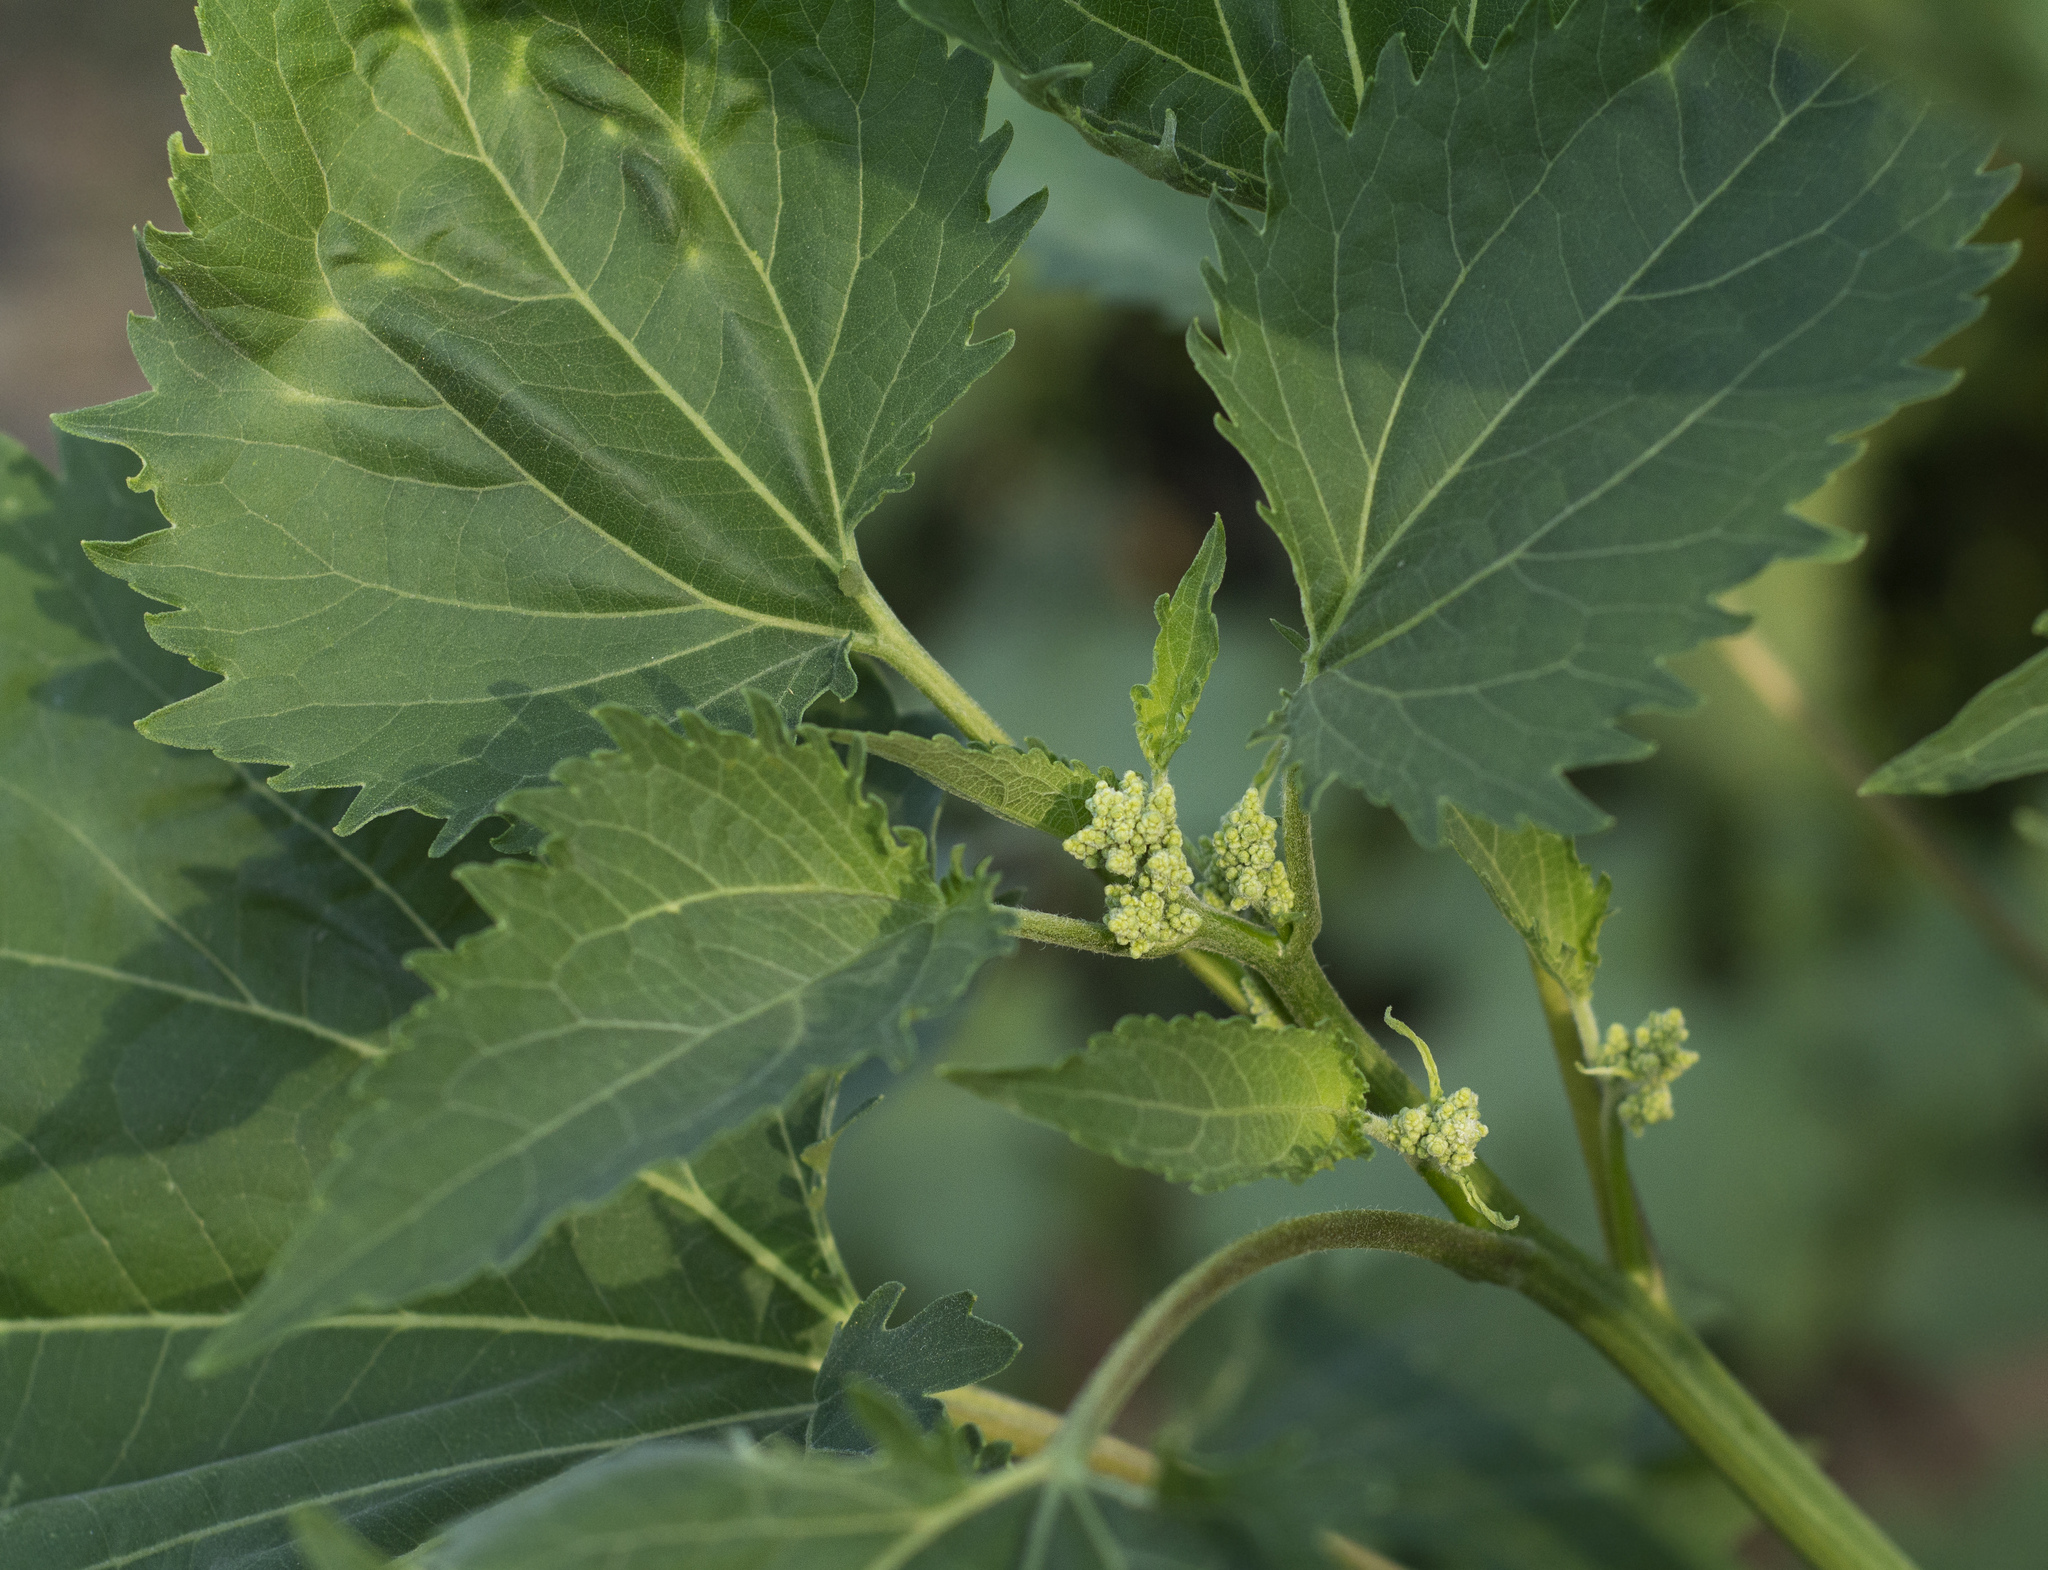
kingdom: Plantae
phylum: Tracheophyta
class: Magnoliopsida
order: Asterales
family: Asteraceae
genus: Cyclachaena
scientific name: Cyclachaena xanthiifolia
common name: Giant sumpweed
